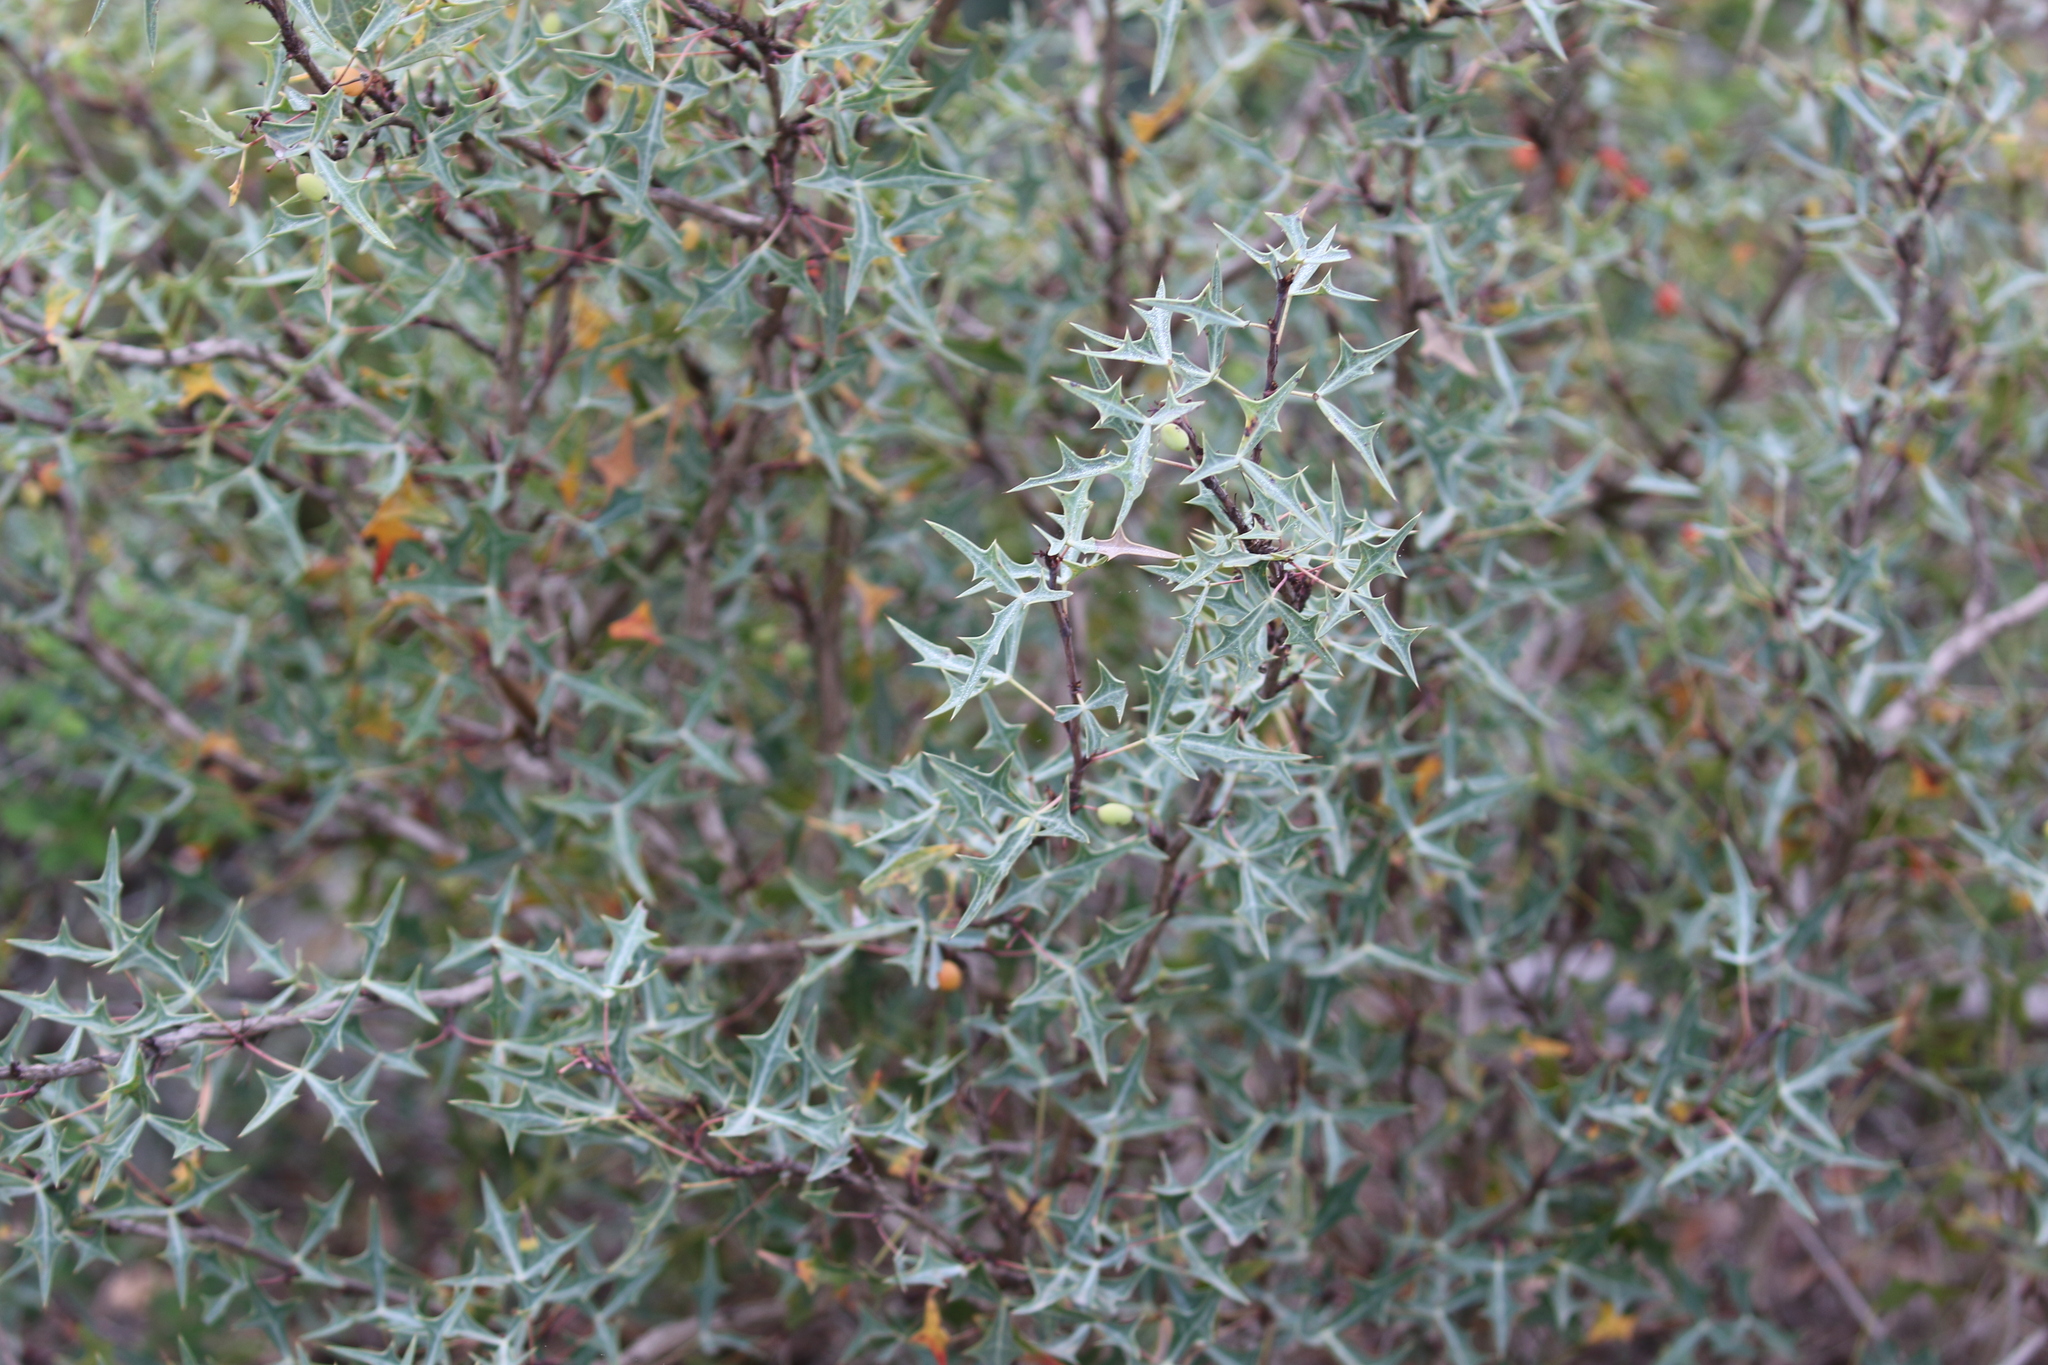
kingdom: Plantae
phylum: Tracheophyta
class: Magnoliopsida
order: Ranunculales
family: Berberidaceae
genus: Alloberberis
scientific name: Alloberberis trifoliolata
